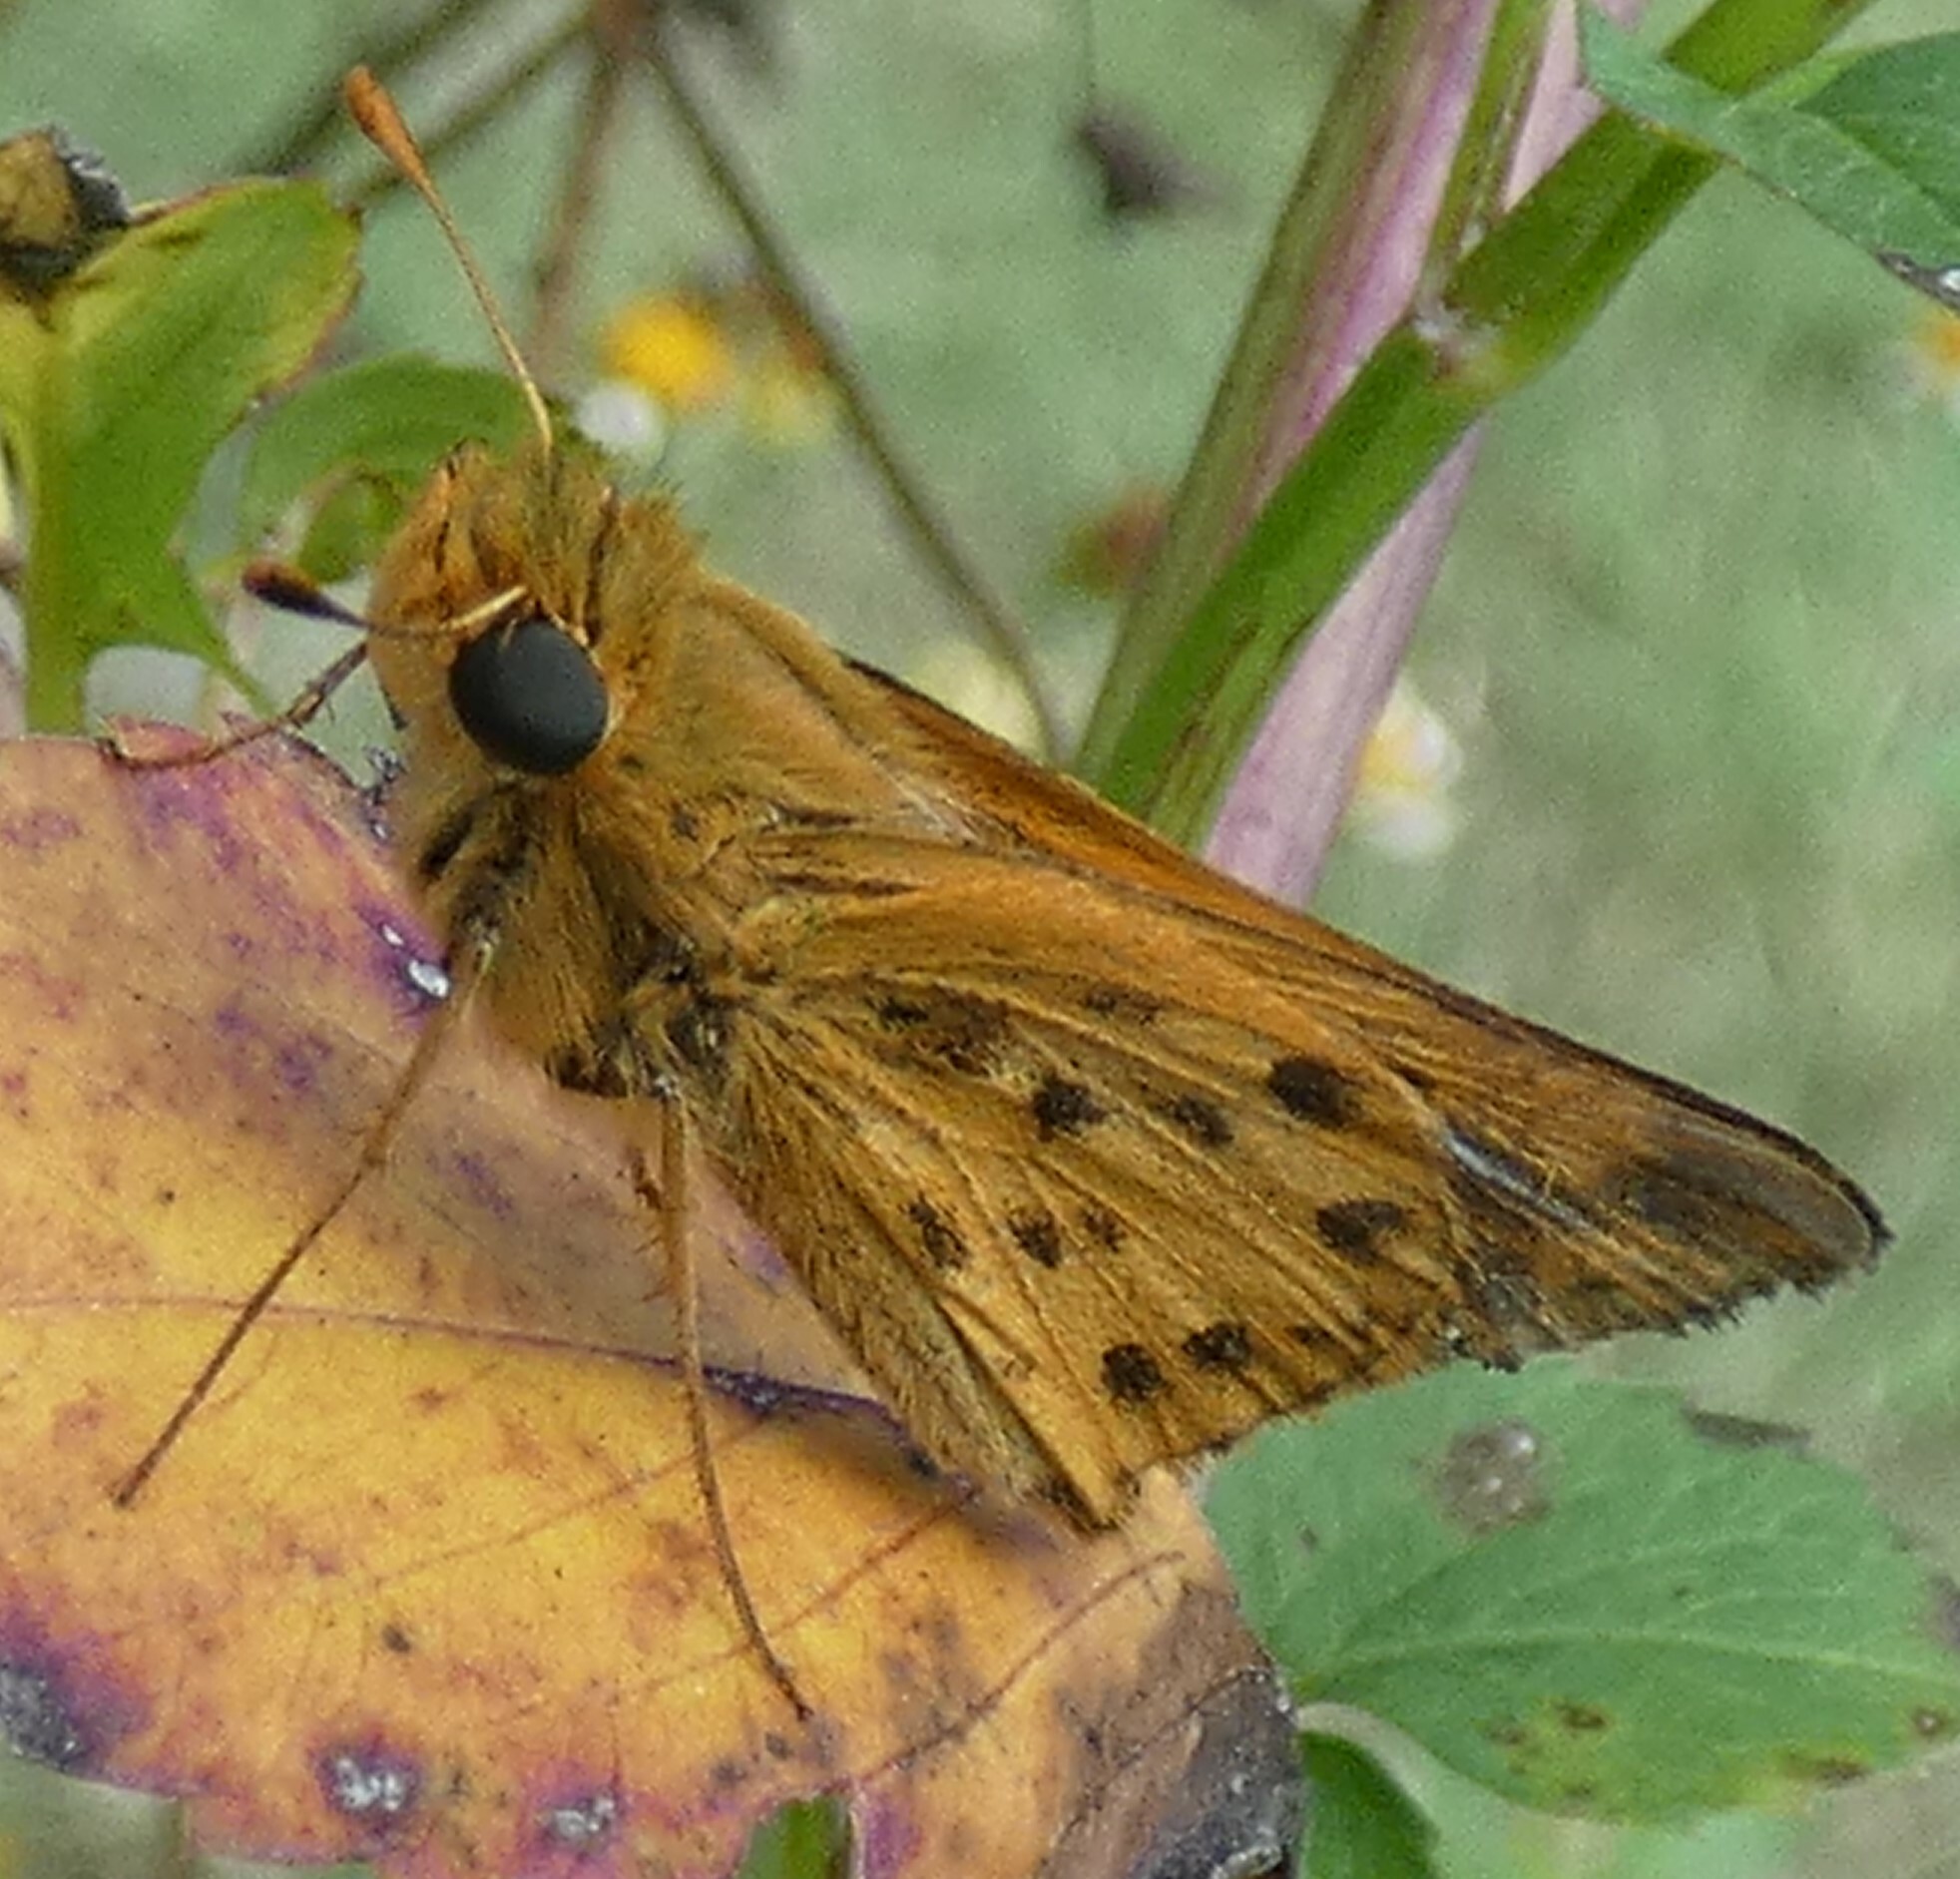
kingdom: Animalia
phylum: Arthropoda
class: Insecta
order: Lepidoptera
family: Hesperiidae
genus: Hylephila
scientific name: Hylephila phyleus
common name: Fiery skipper
